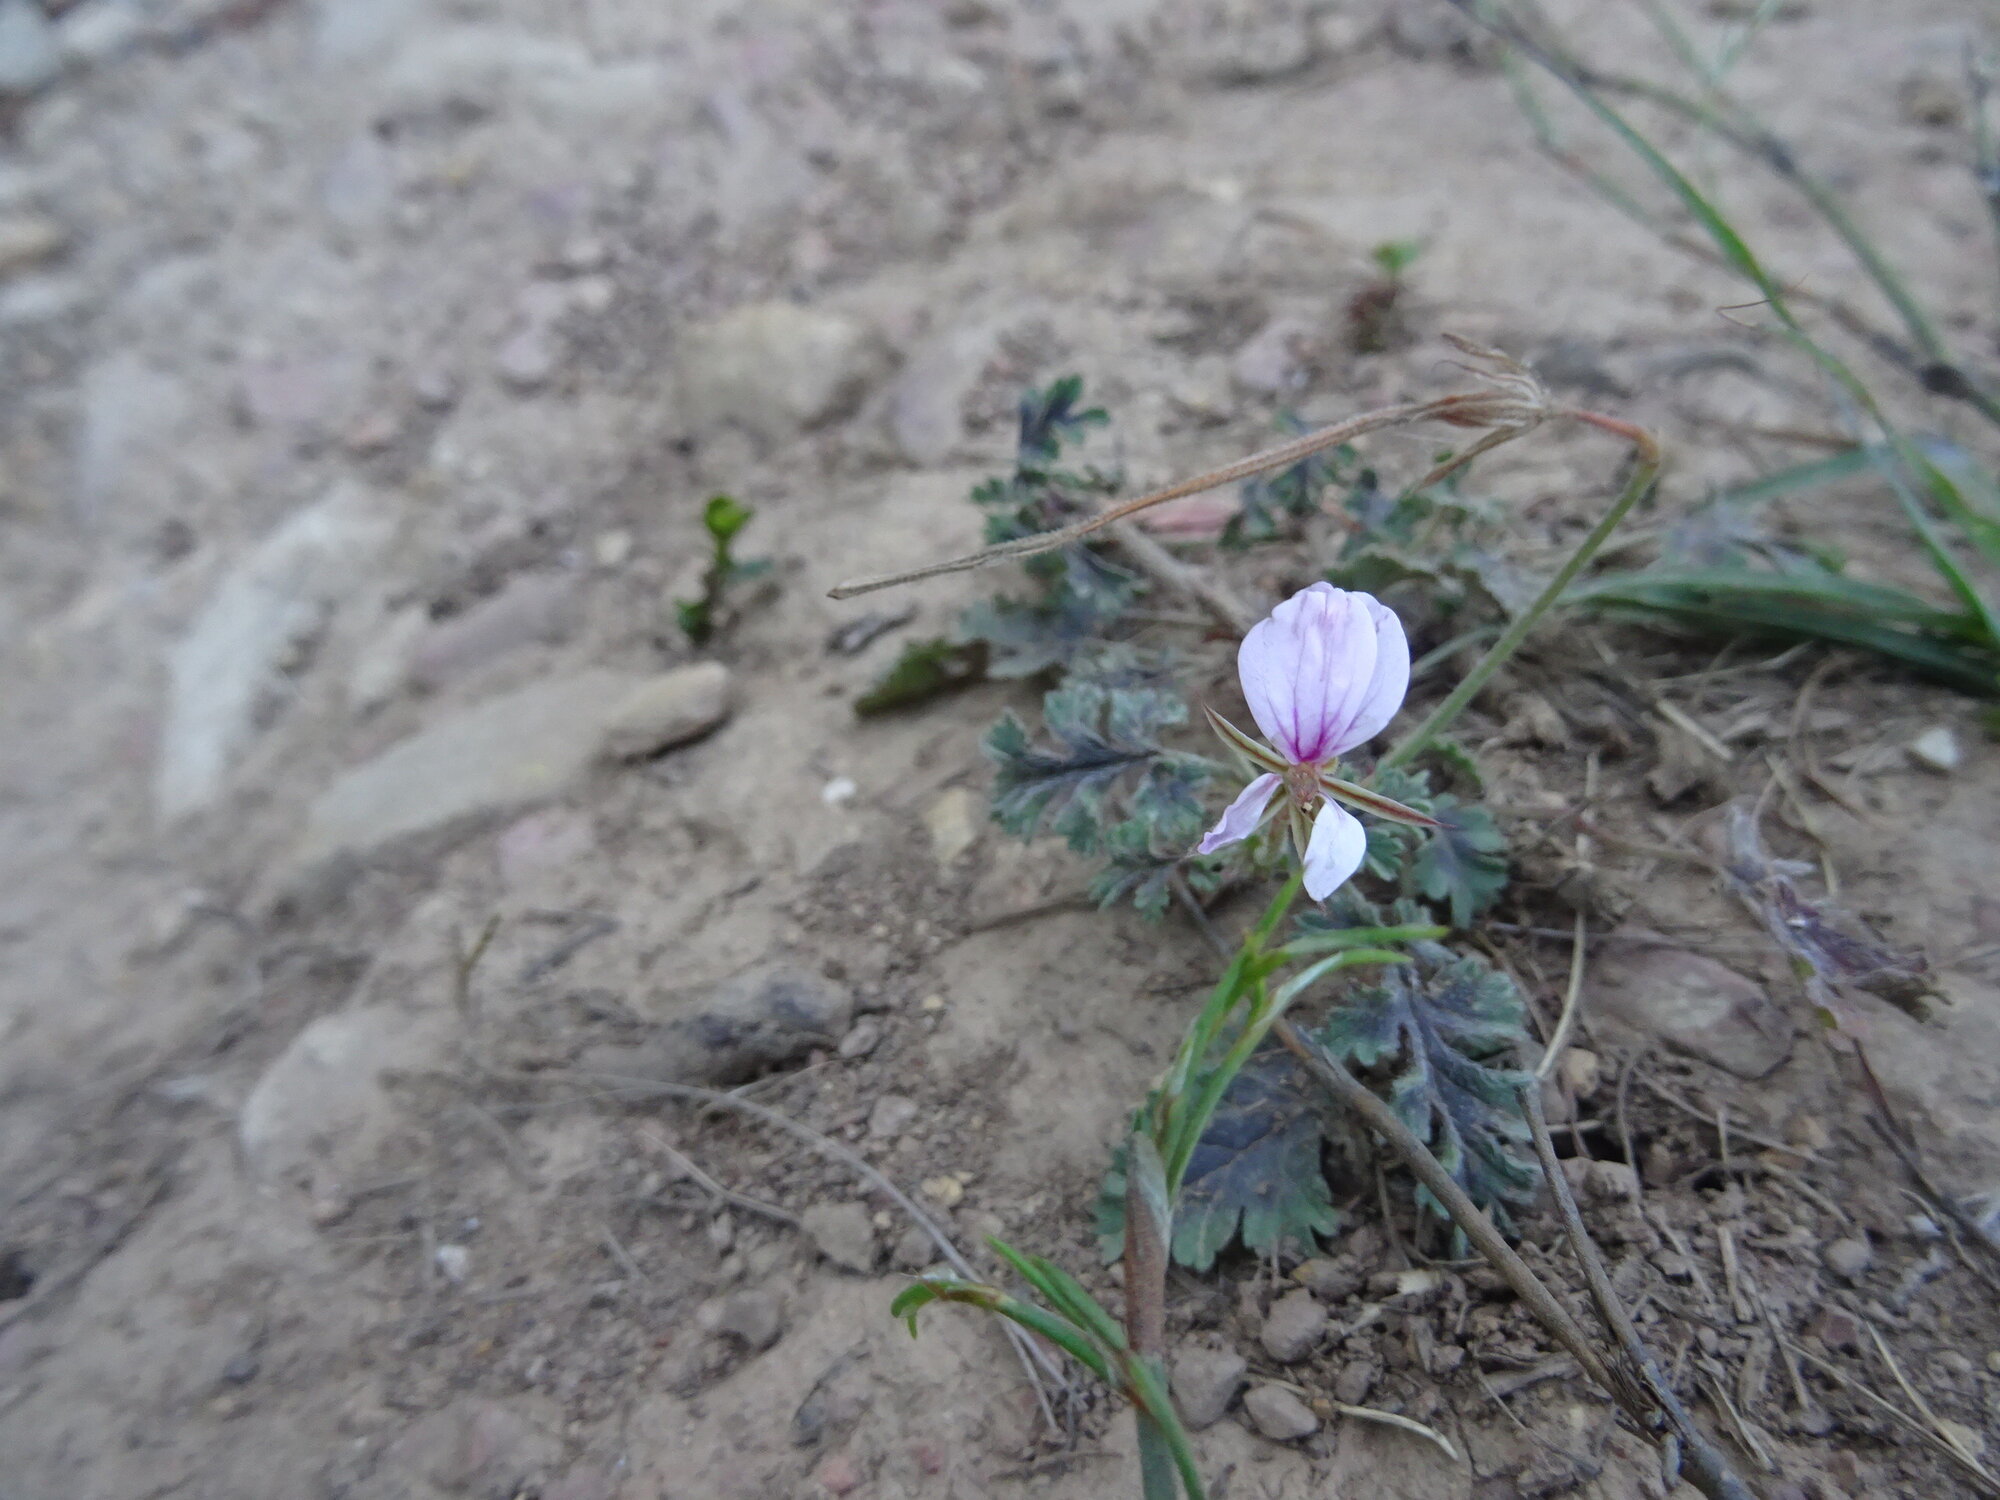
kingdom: Plantae
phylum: Tracheophyta
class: Magnoliopsida
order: Geraniales
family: Geraniaceae
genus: Pelargonium
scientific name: Pelargonium candicans
